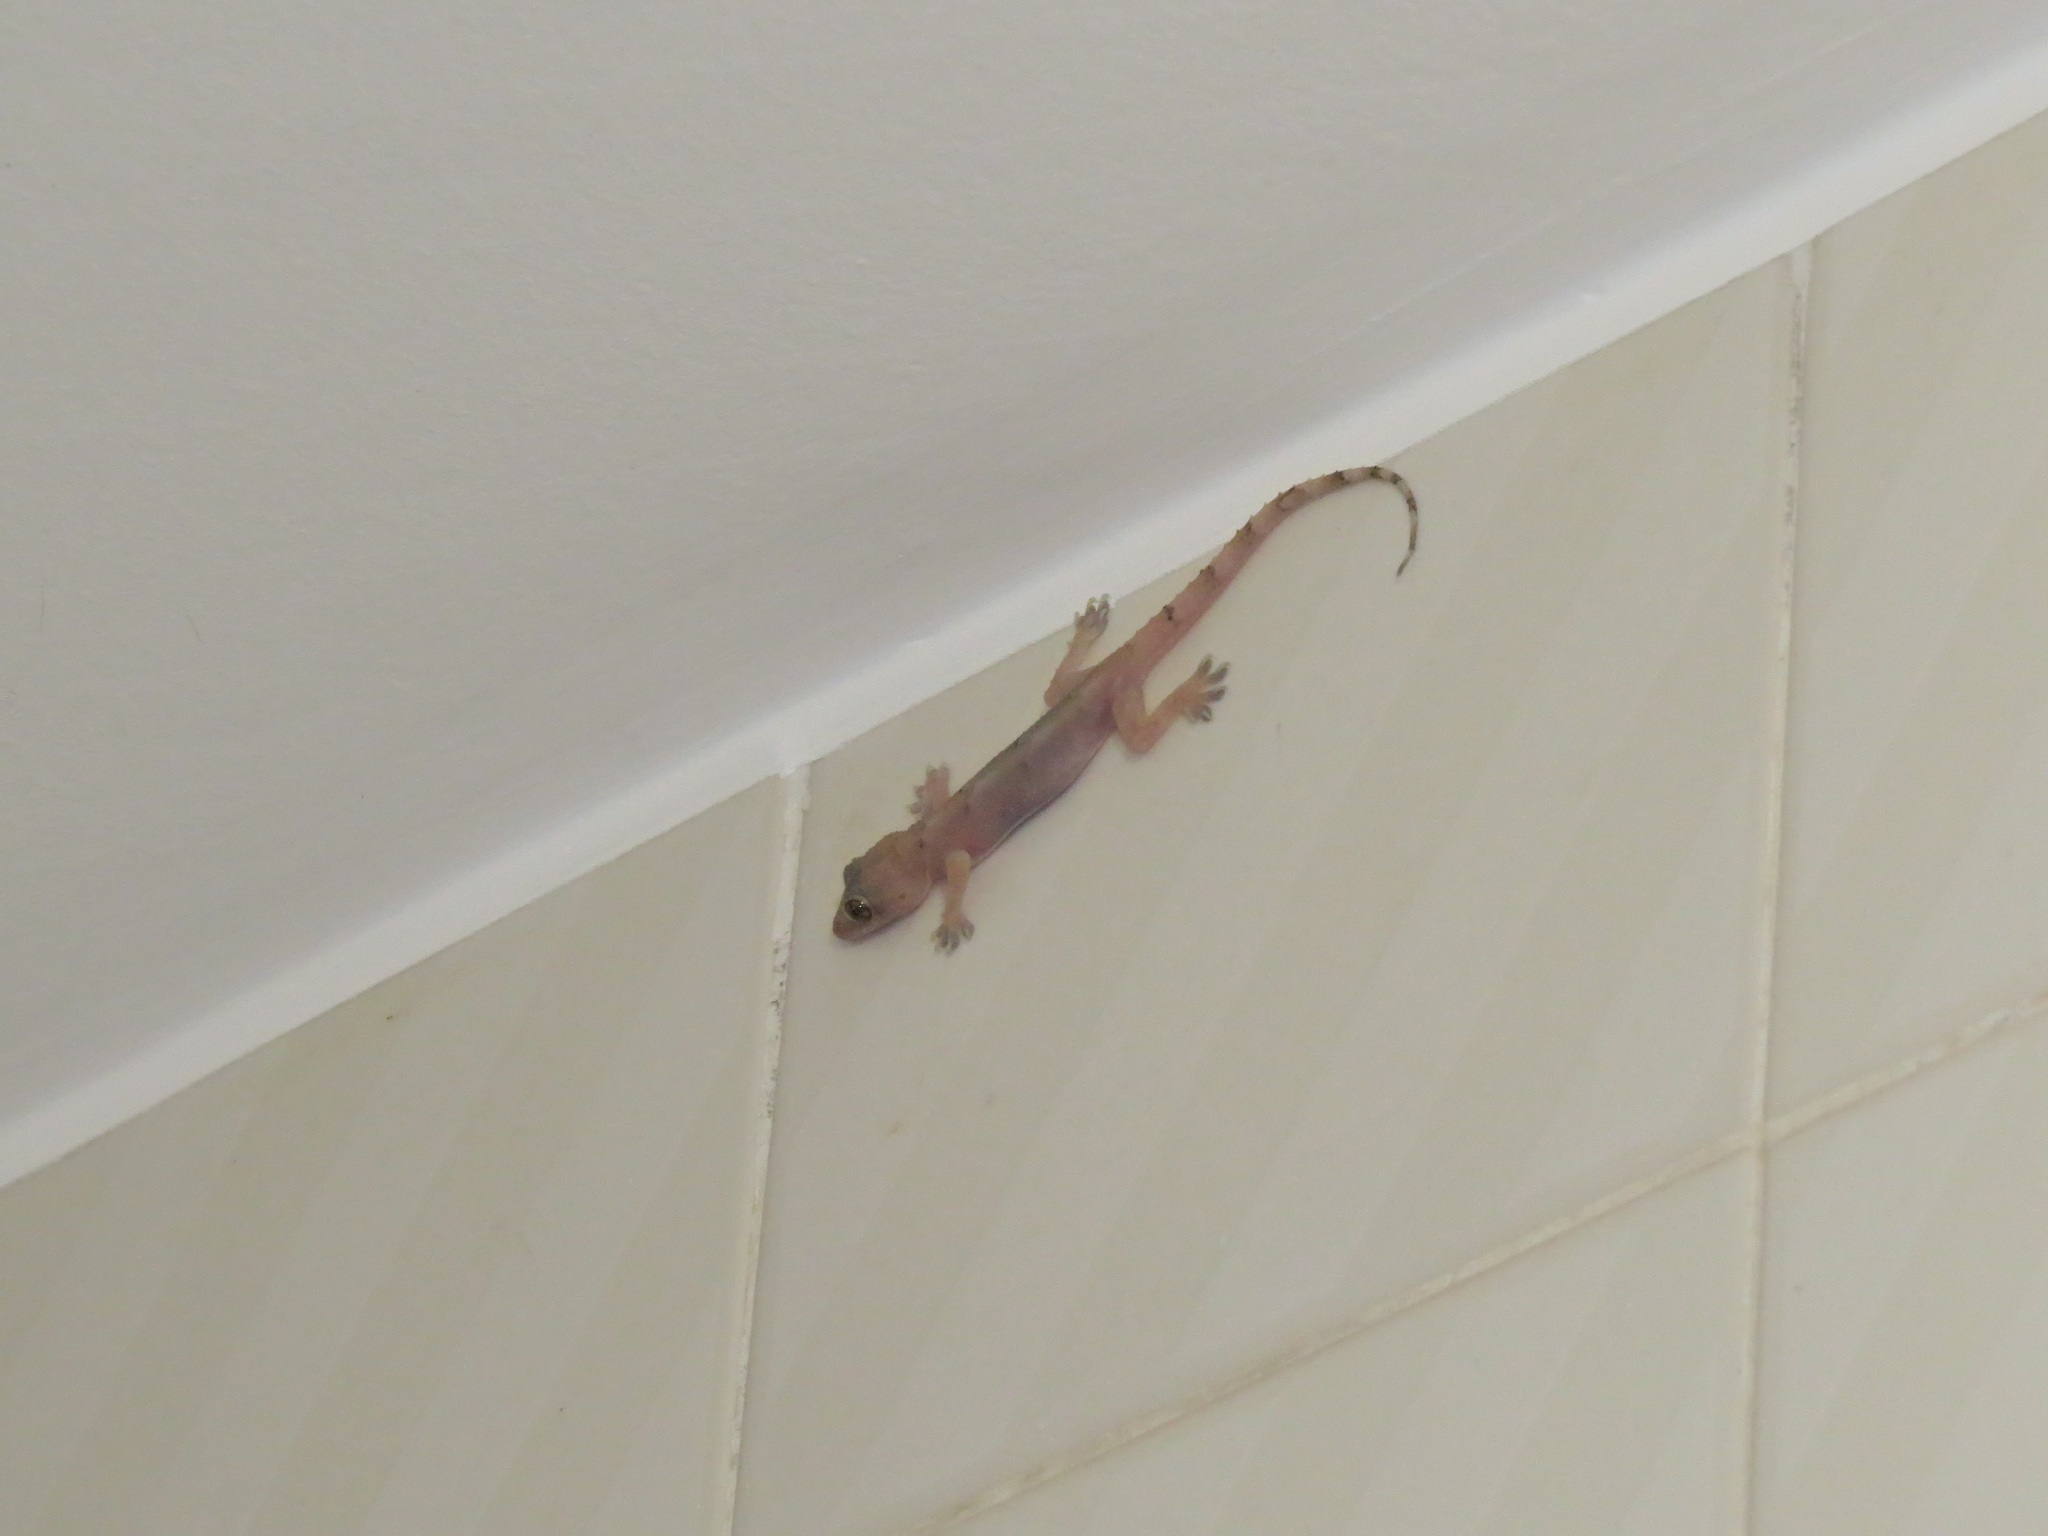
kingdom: Animalia
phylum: Chordata
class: Squamata
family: Gekkonidae
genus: Hemidactylus
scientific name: Hemidactylus mabouia
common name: House gecko
